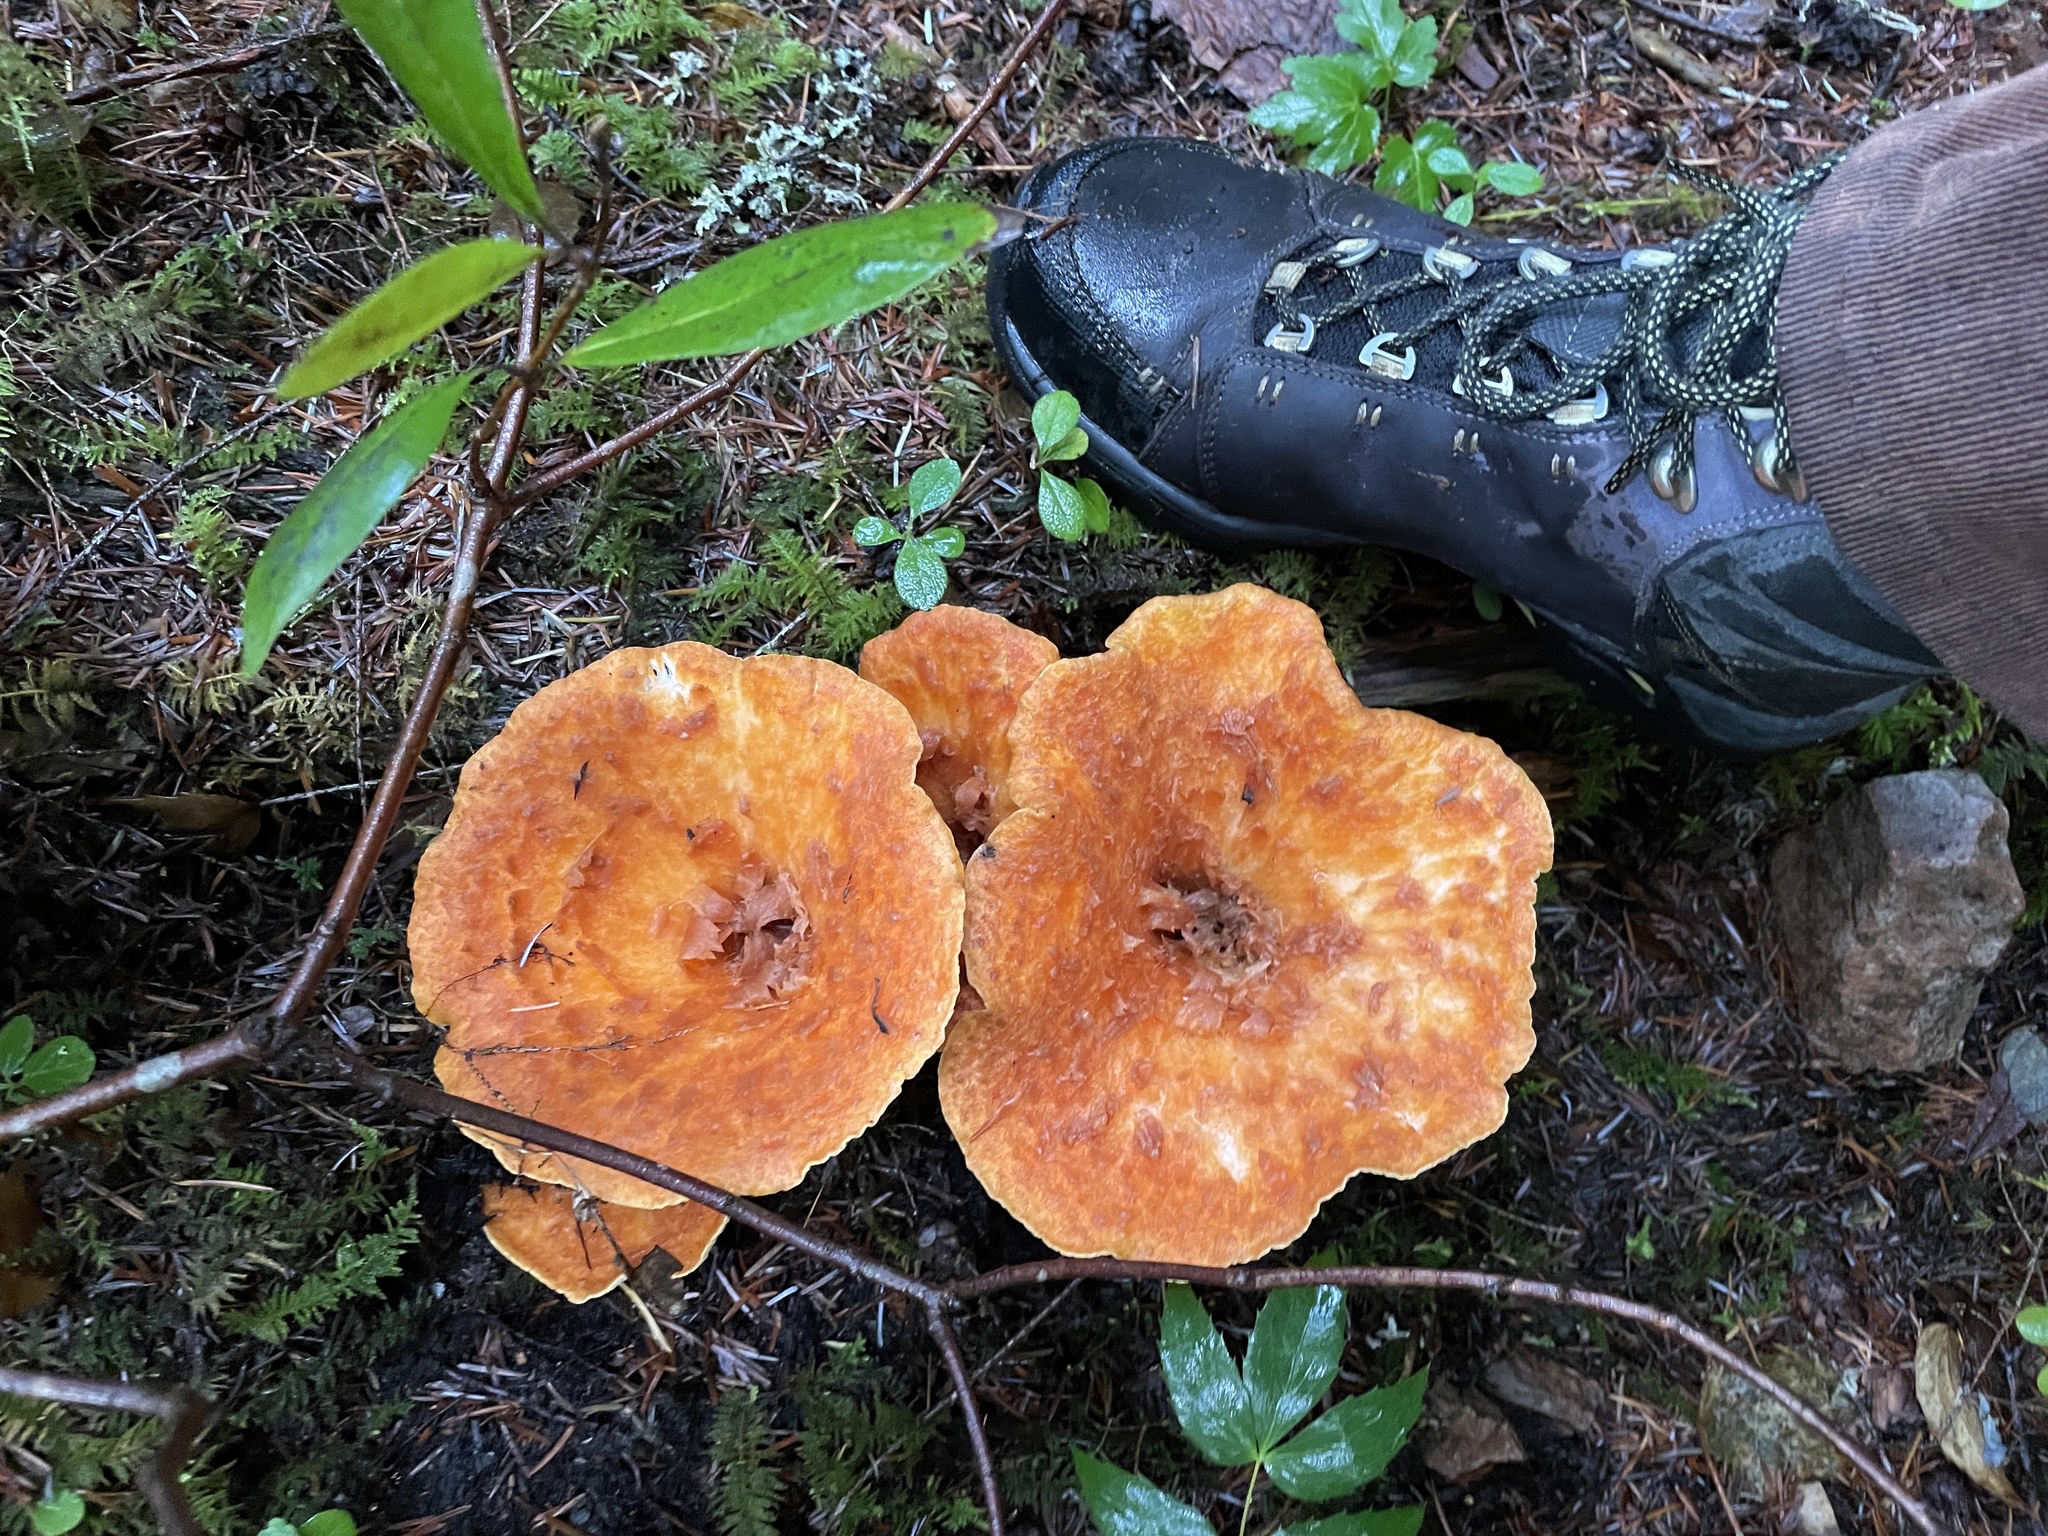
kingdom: Fungi
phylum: Basidiomycota
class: Agaricomycetes
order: Gomphales
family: Gomphaceae
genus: Turbinellus
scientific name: Turbinellus floccosus
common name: Scaly chanterelle
